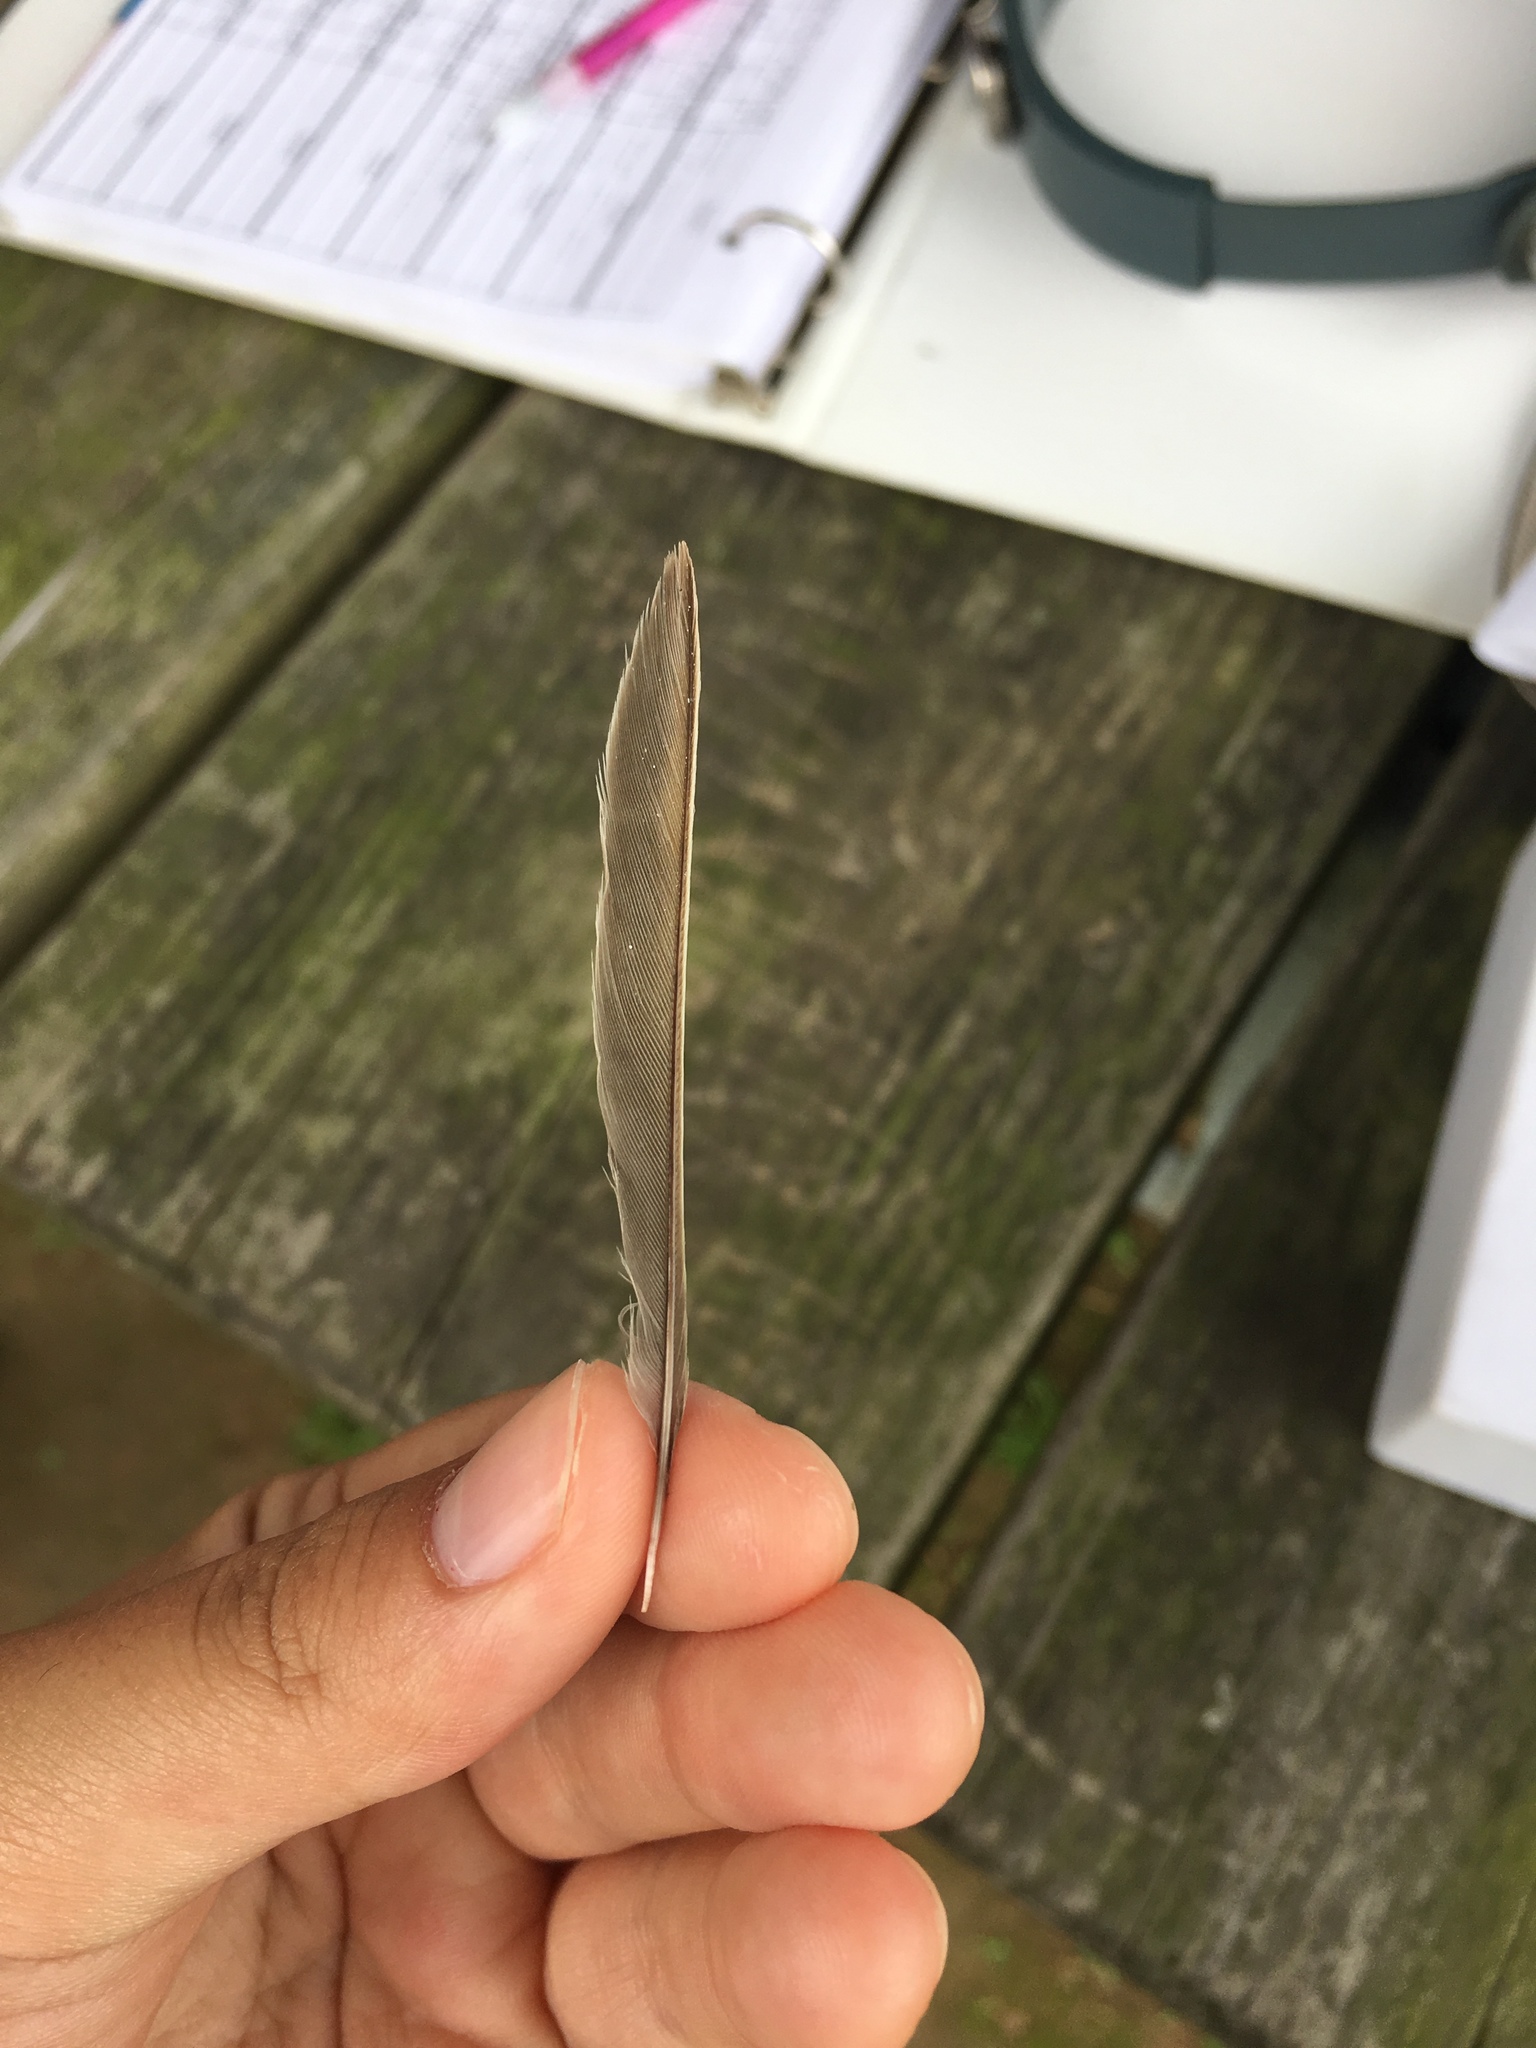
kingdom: Animalia
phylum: Chordata
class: Aves
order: Passeriformes
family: Passerellidae
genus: Spizella
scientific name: Spizella pusilla
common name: Field sparrow
